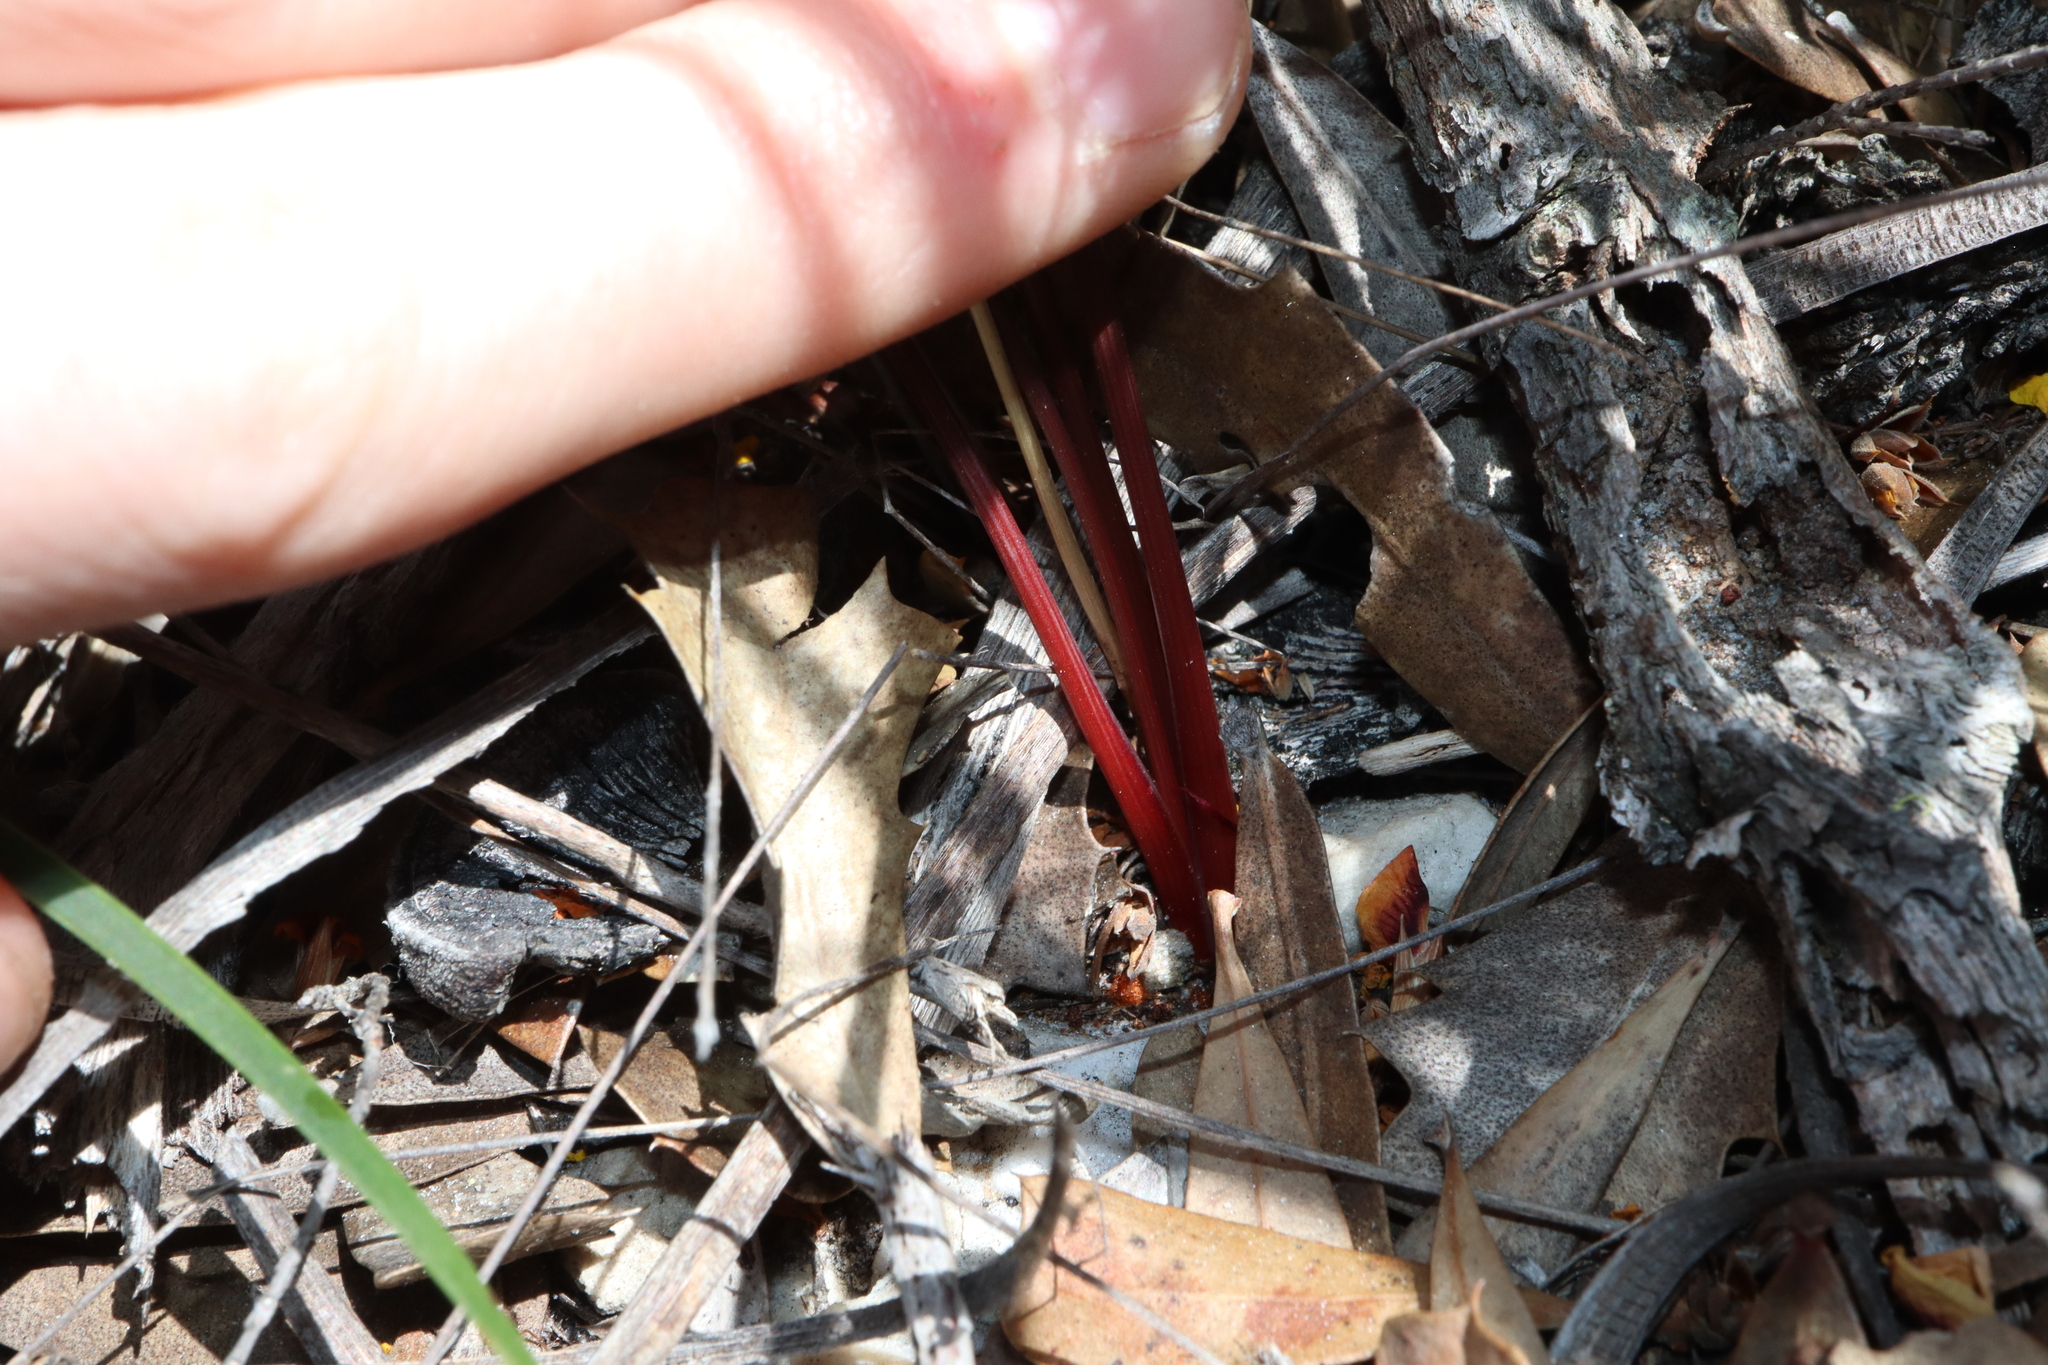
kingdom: Plantae
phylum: Tracheophyta
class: Liliopsida
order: Asparagales
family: Asparagaceae
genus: Thysanotus
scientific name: Thysanotus multiflorus
